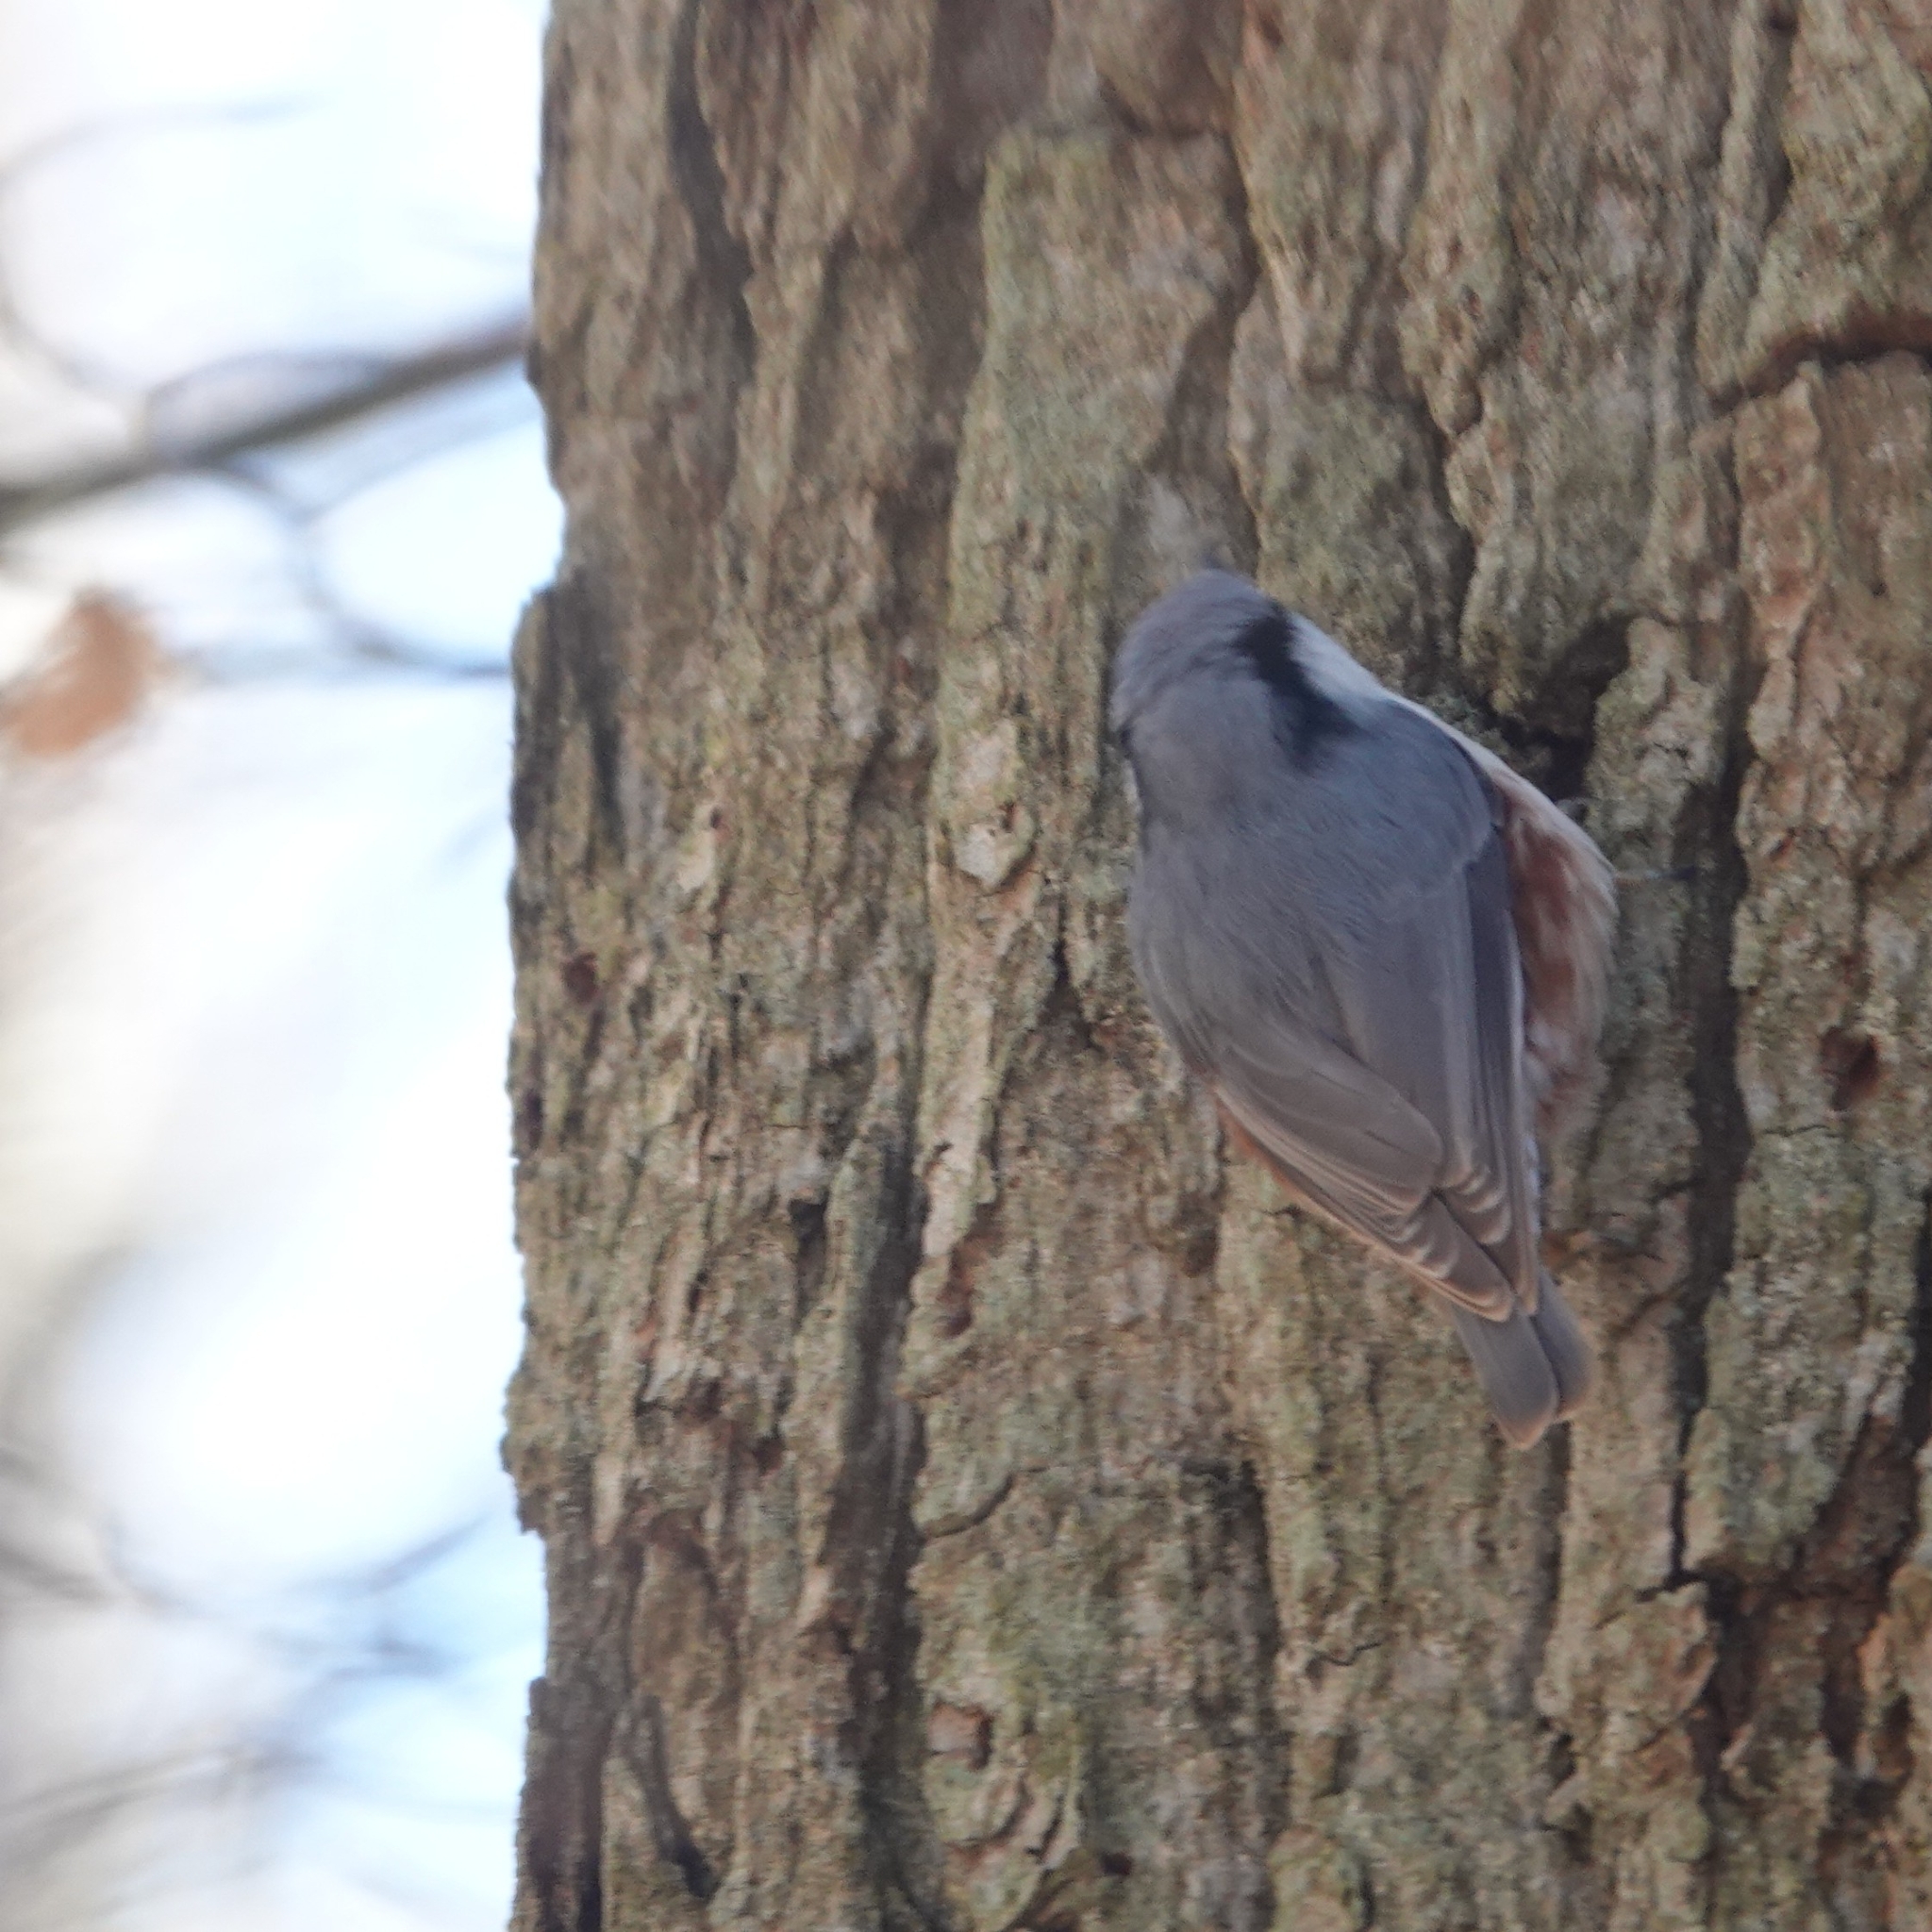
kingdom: Animalia
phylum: Chordata
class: Aves
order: Passeriformes
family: Sittidae
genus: Sitta
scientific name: Sitta europaea
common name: Eurasian nuthatch
